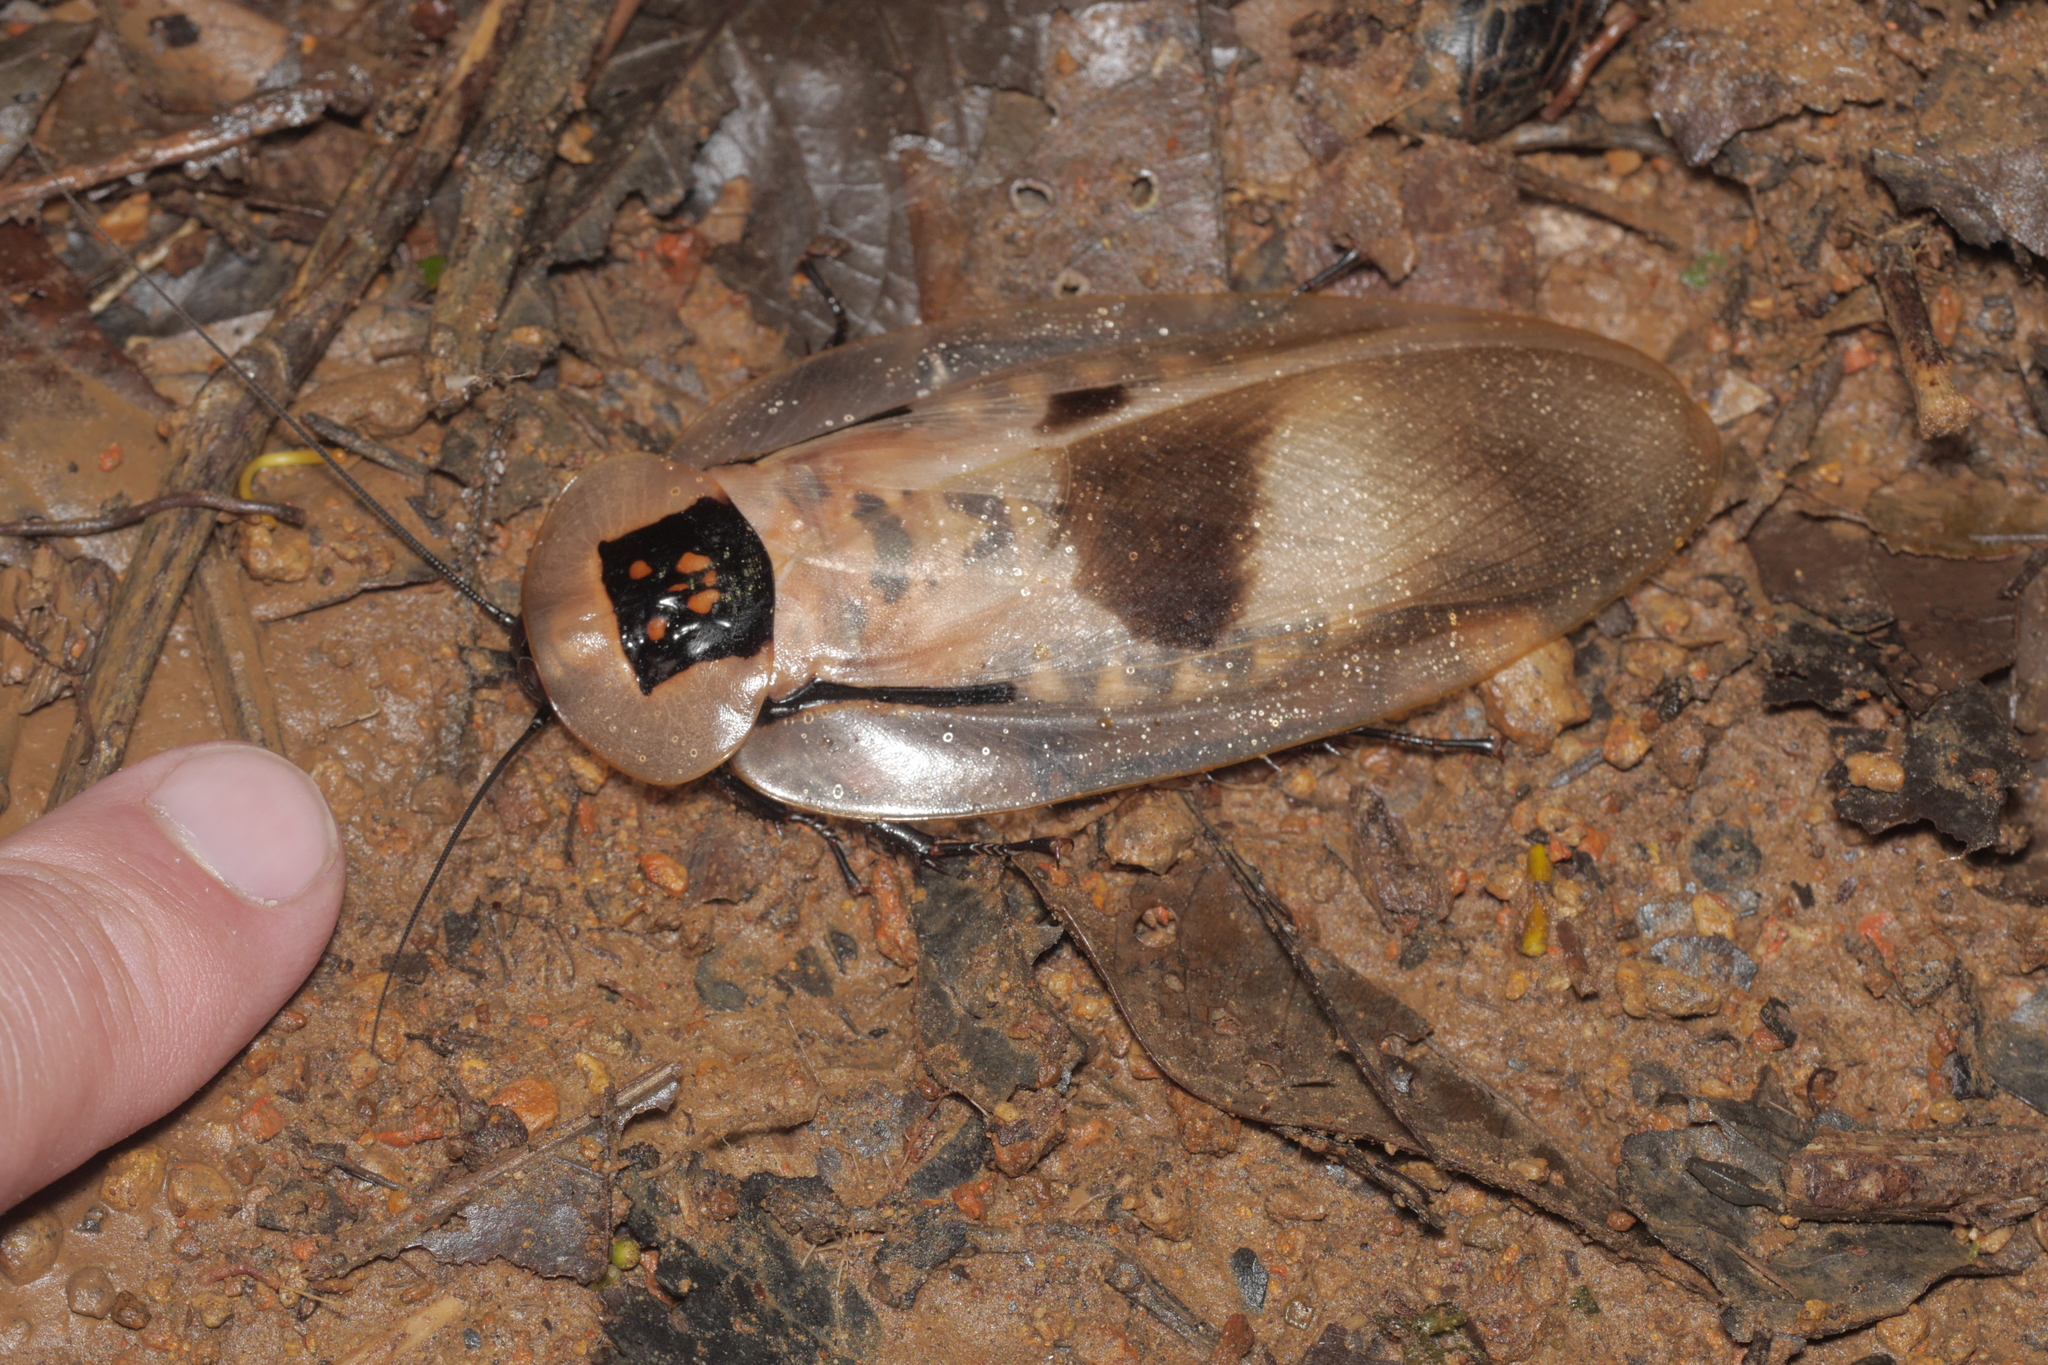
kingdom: Animalia
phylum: Arthropoda
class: Insecta
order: Blattodea
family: Blaberidae
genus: Blaberus
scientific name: Blaberus giganteus
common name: Giant cave cockroach
